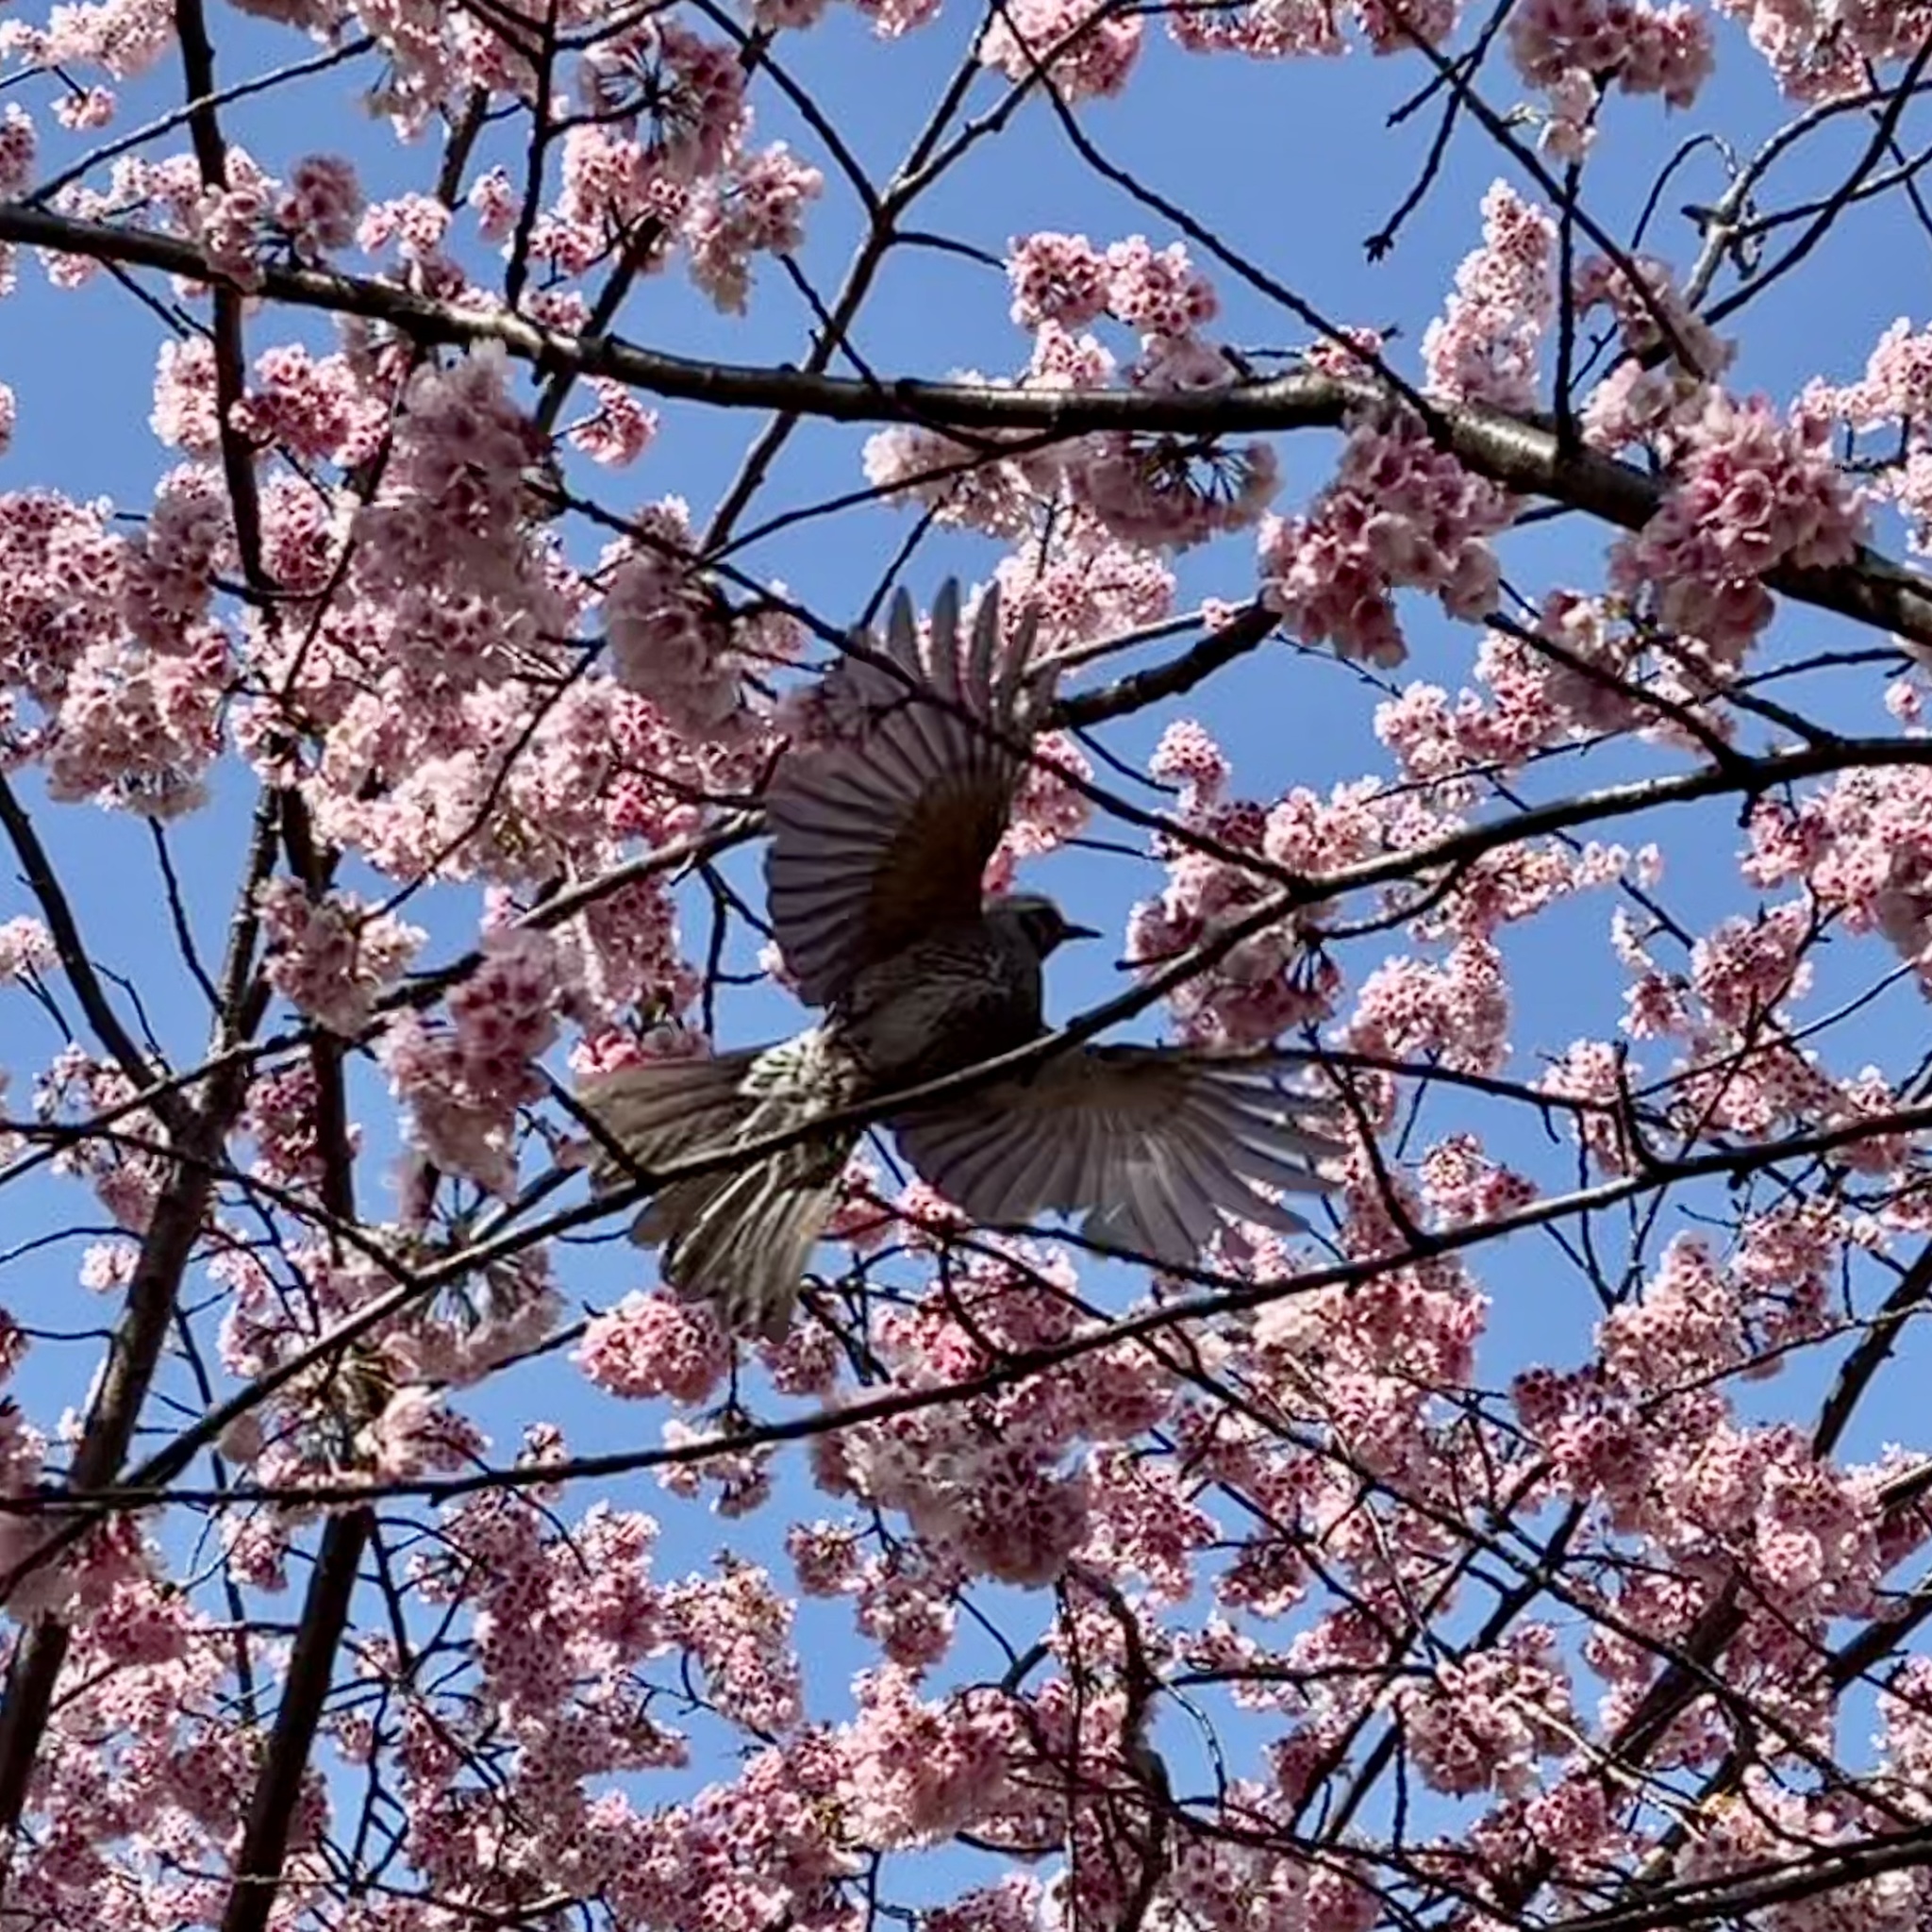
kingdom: Animalia
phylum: Chordata
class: Aves
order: Passeriformes
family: Pycnonotidae
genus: Hypsipetes
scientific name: Hypsipetes amaurotis
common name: Brown-eared bulbul
